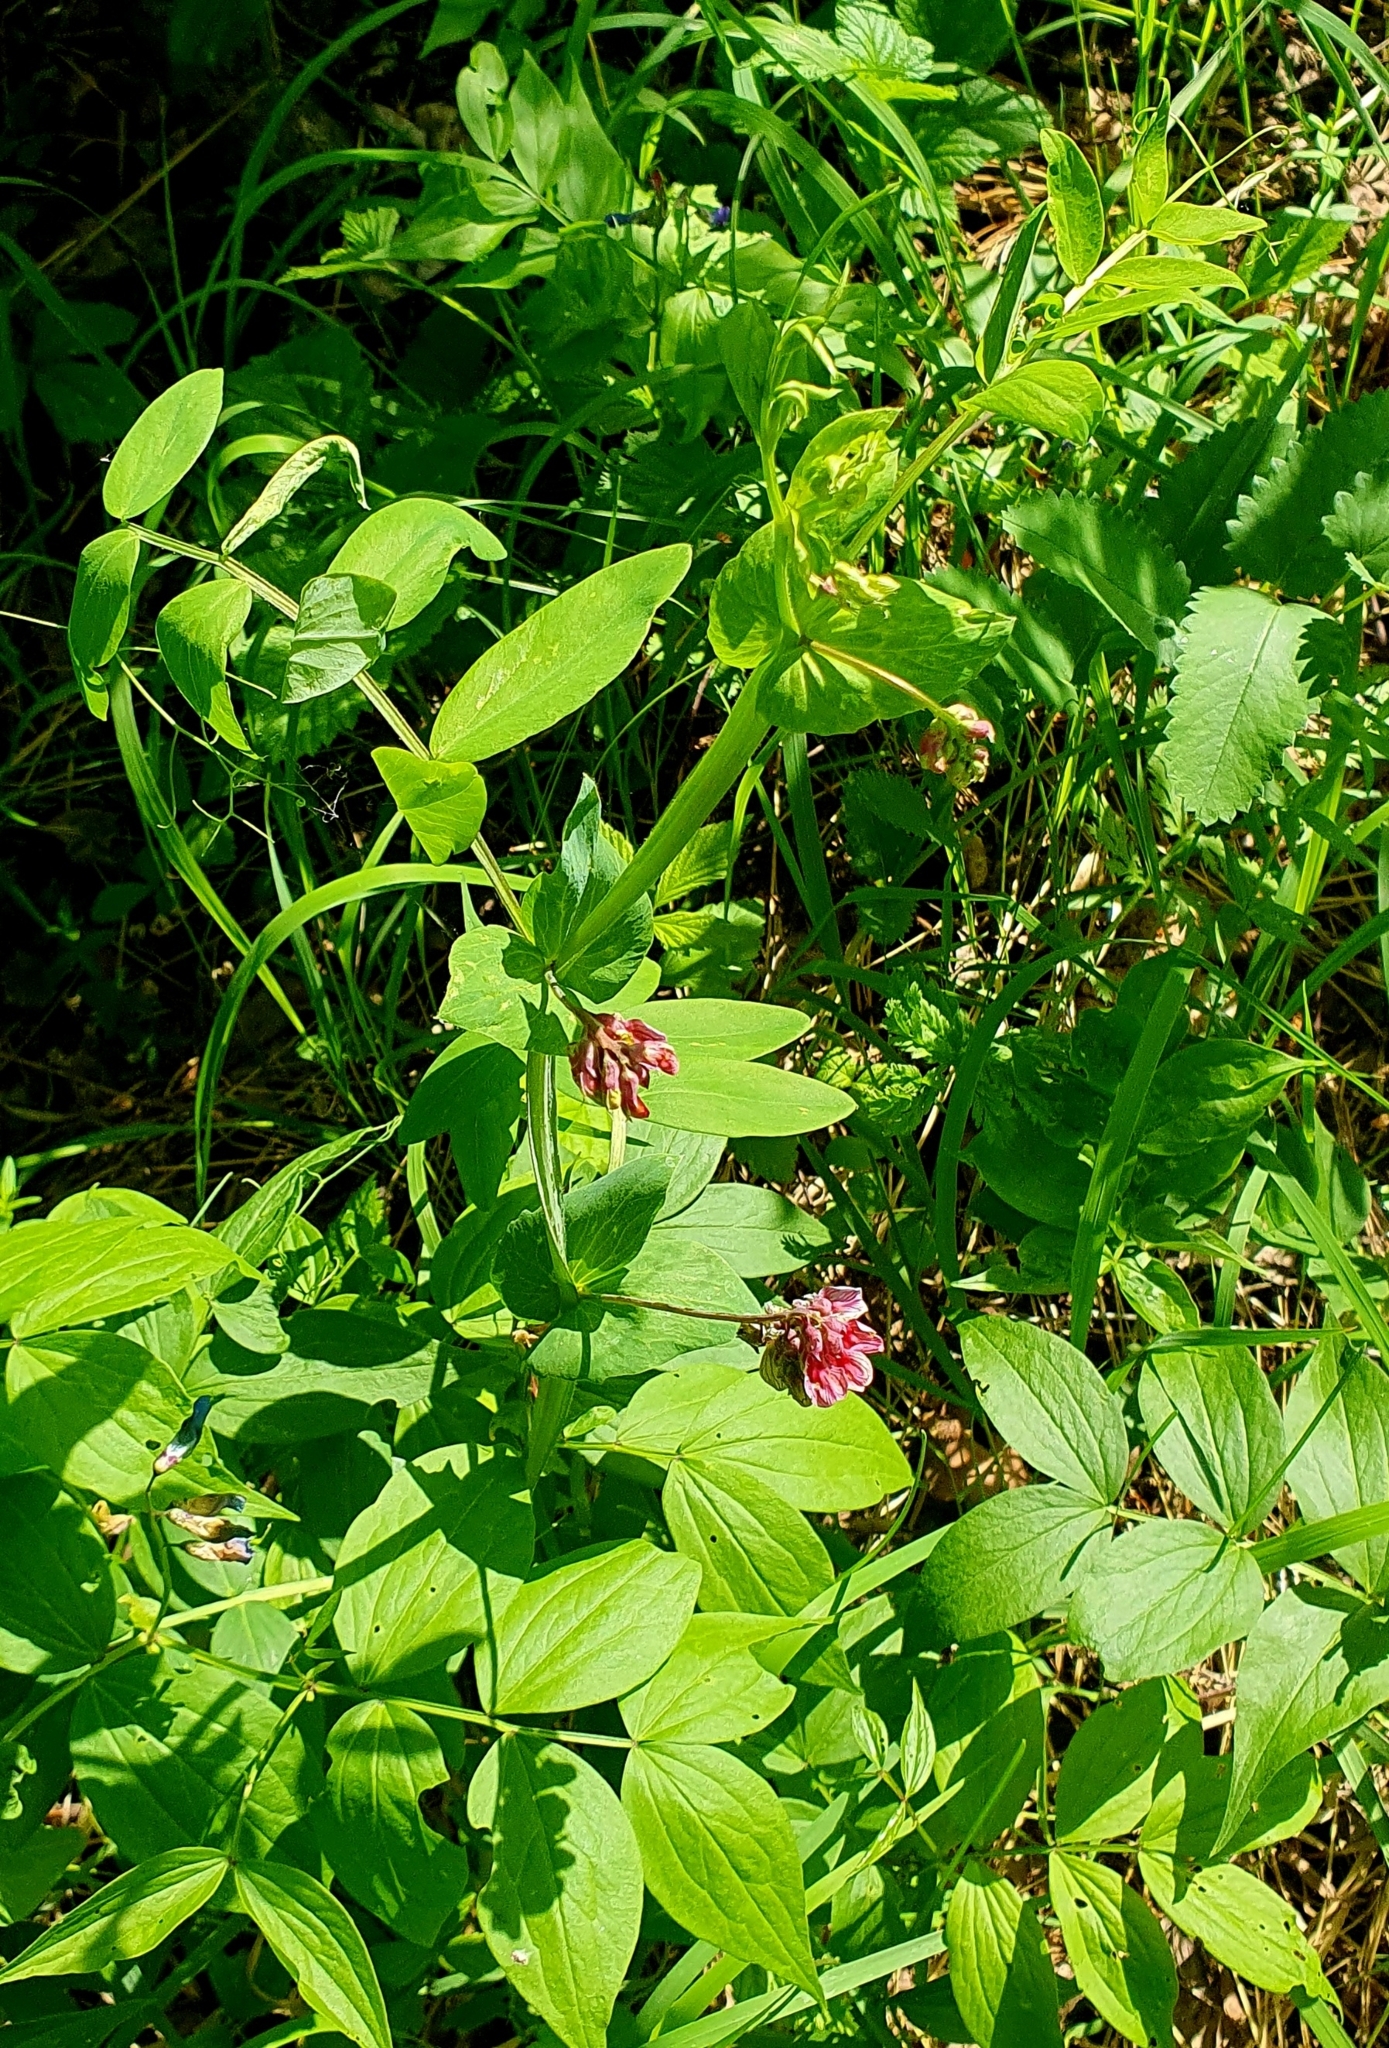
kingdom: Plantae
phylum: Tracheophyta
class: Magnoliopsida
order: Fabales
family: Fabaceae
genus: Lathyrus
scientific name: Lathyrus pisiformis
